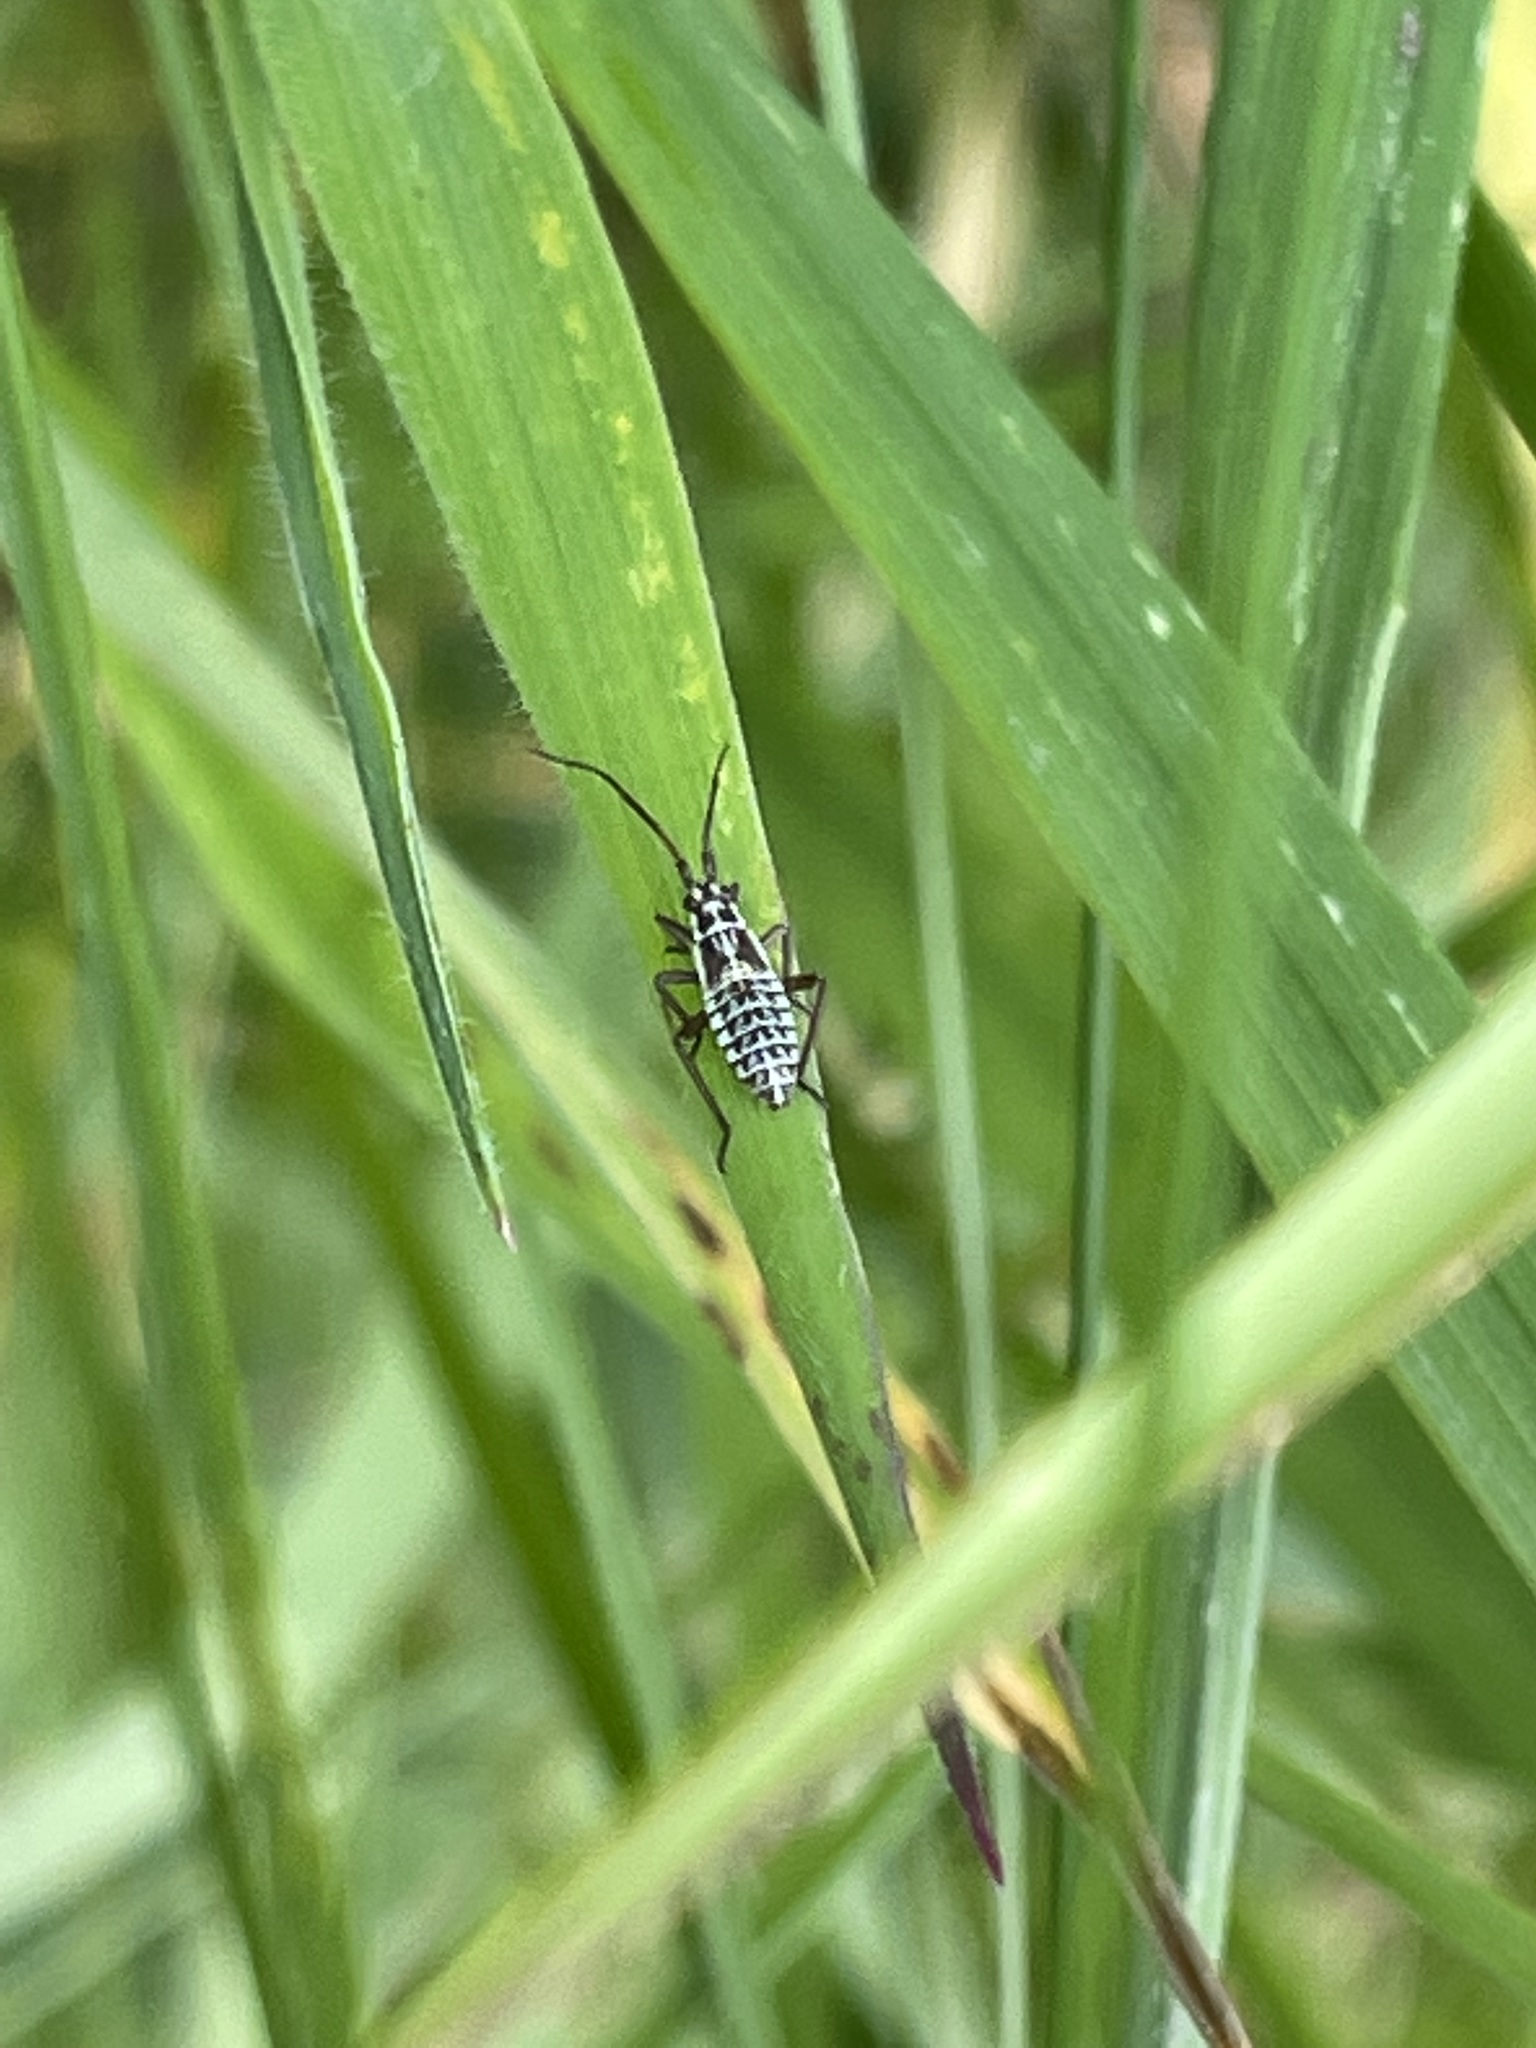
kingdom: Animalia
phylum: Arthropoda
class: Insecta
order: Hemiptera
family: Miridae
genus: Leptopterna
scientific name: Leptopterna dolabrata
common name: Meadow plant bug
